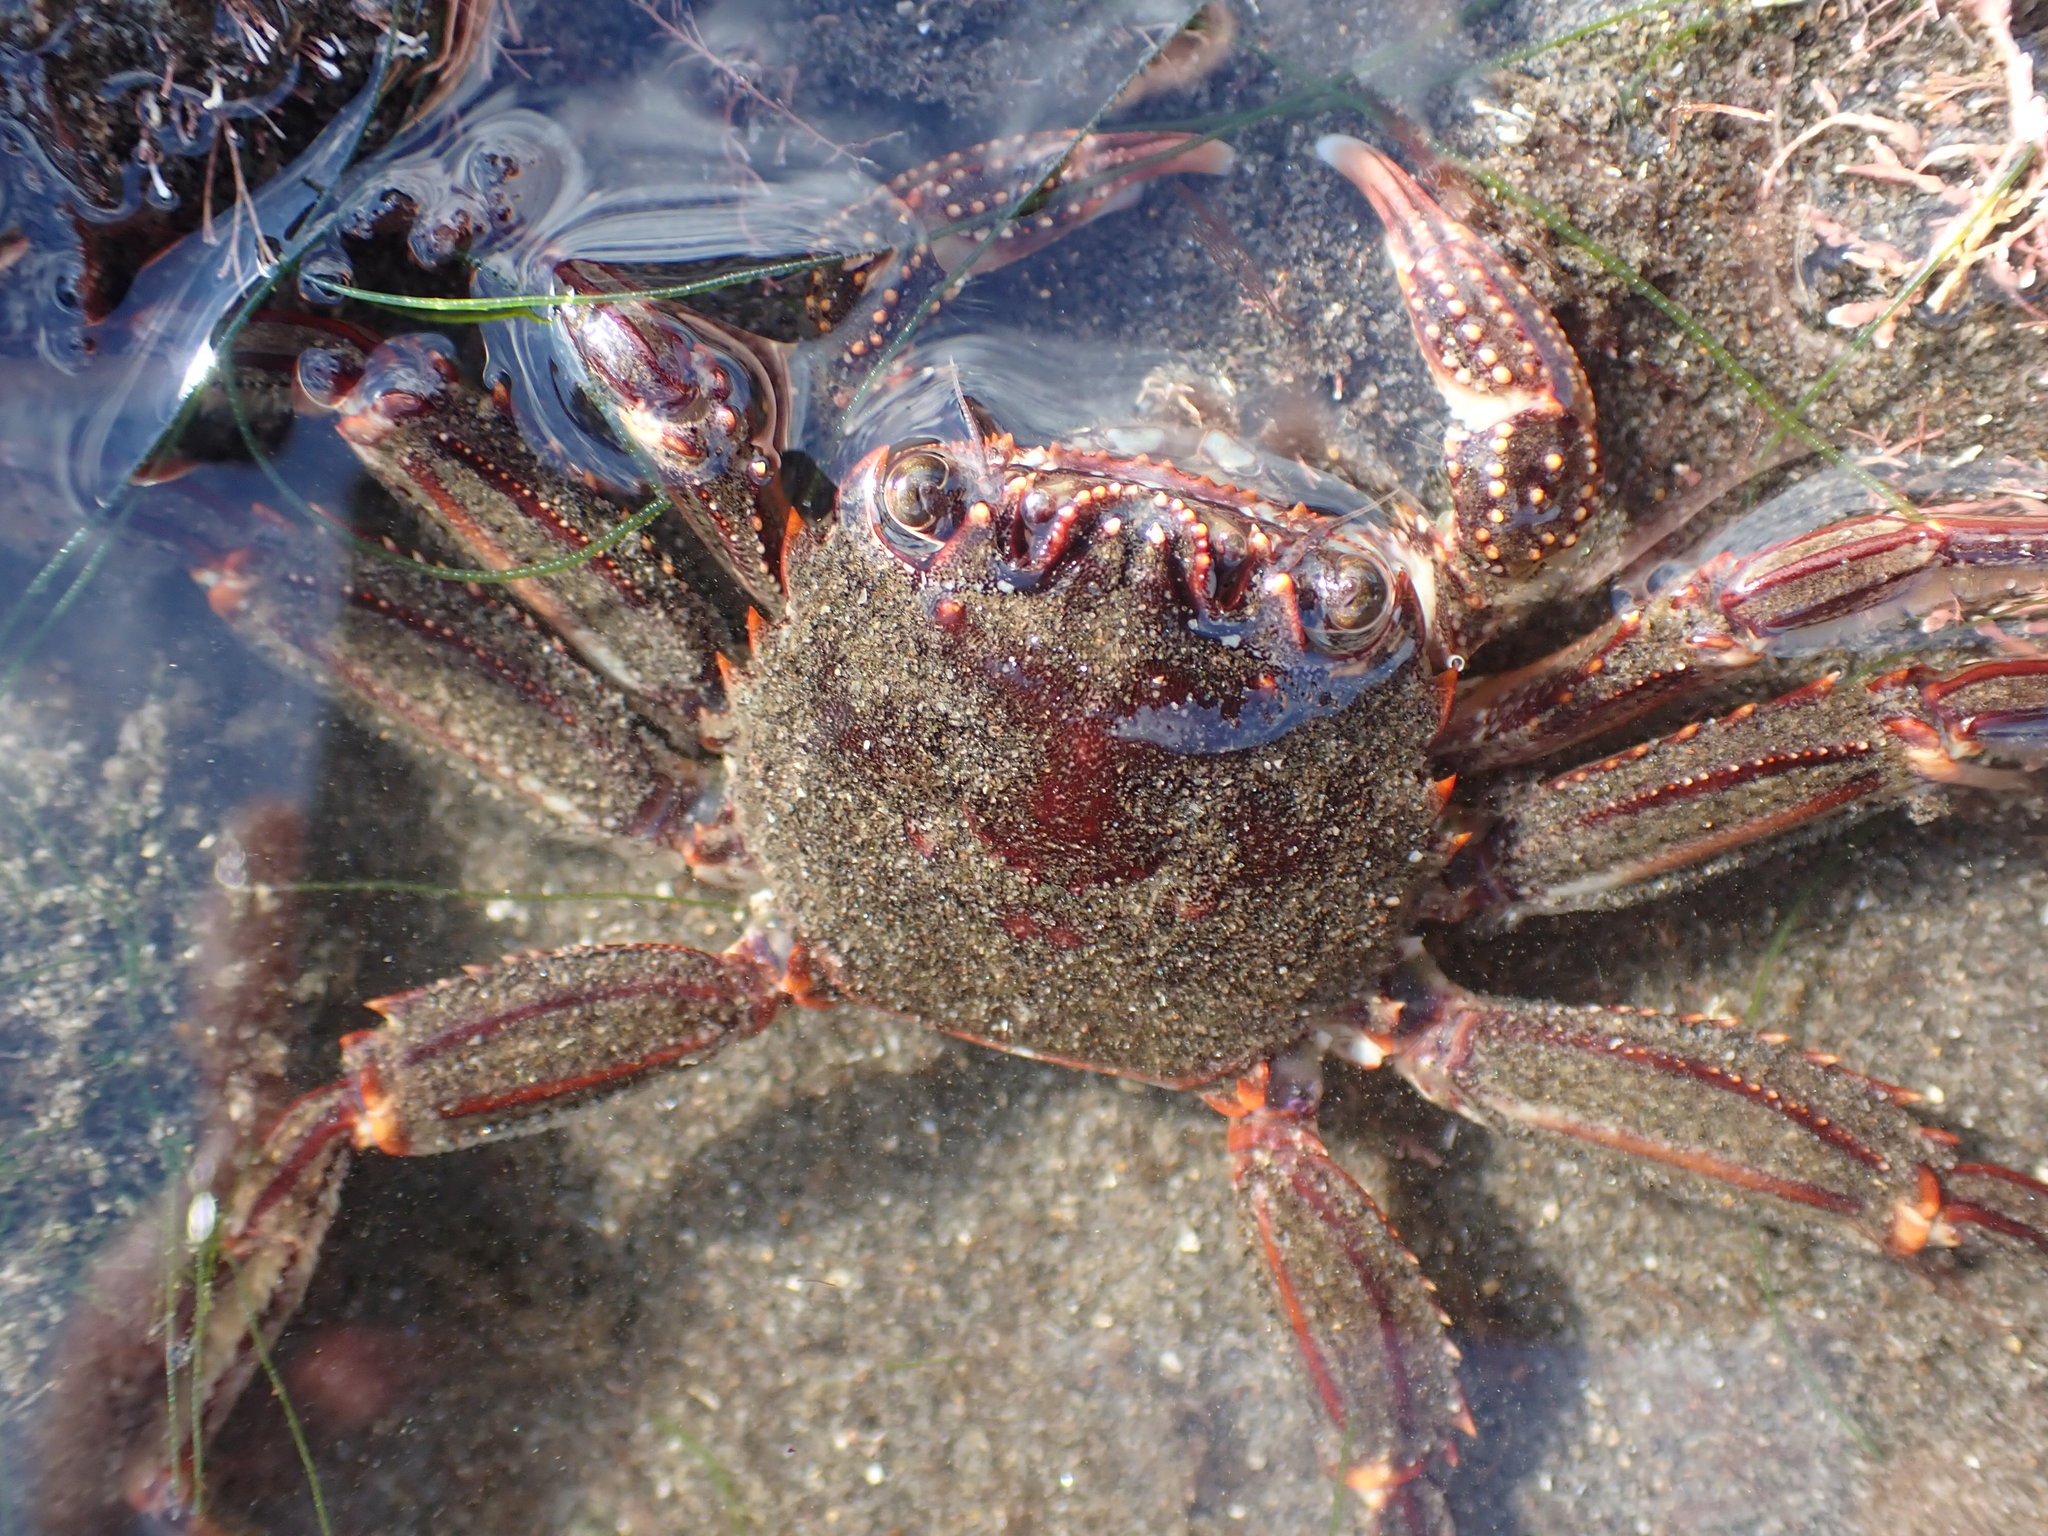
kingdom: Animalia
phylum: Arthropoda
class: Malacostraca
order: Decapoda
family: Plagusiidae
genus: Guinusia
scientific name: Guinusia chabrus
